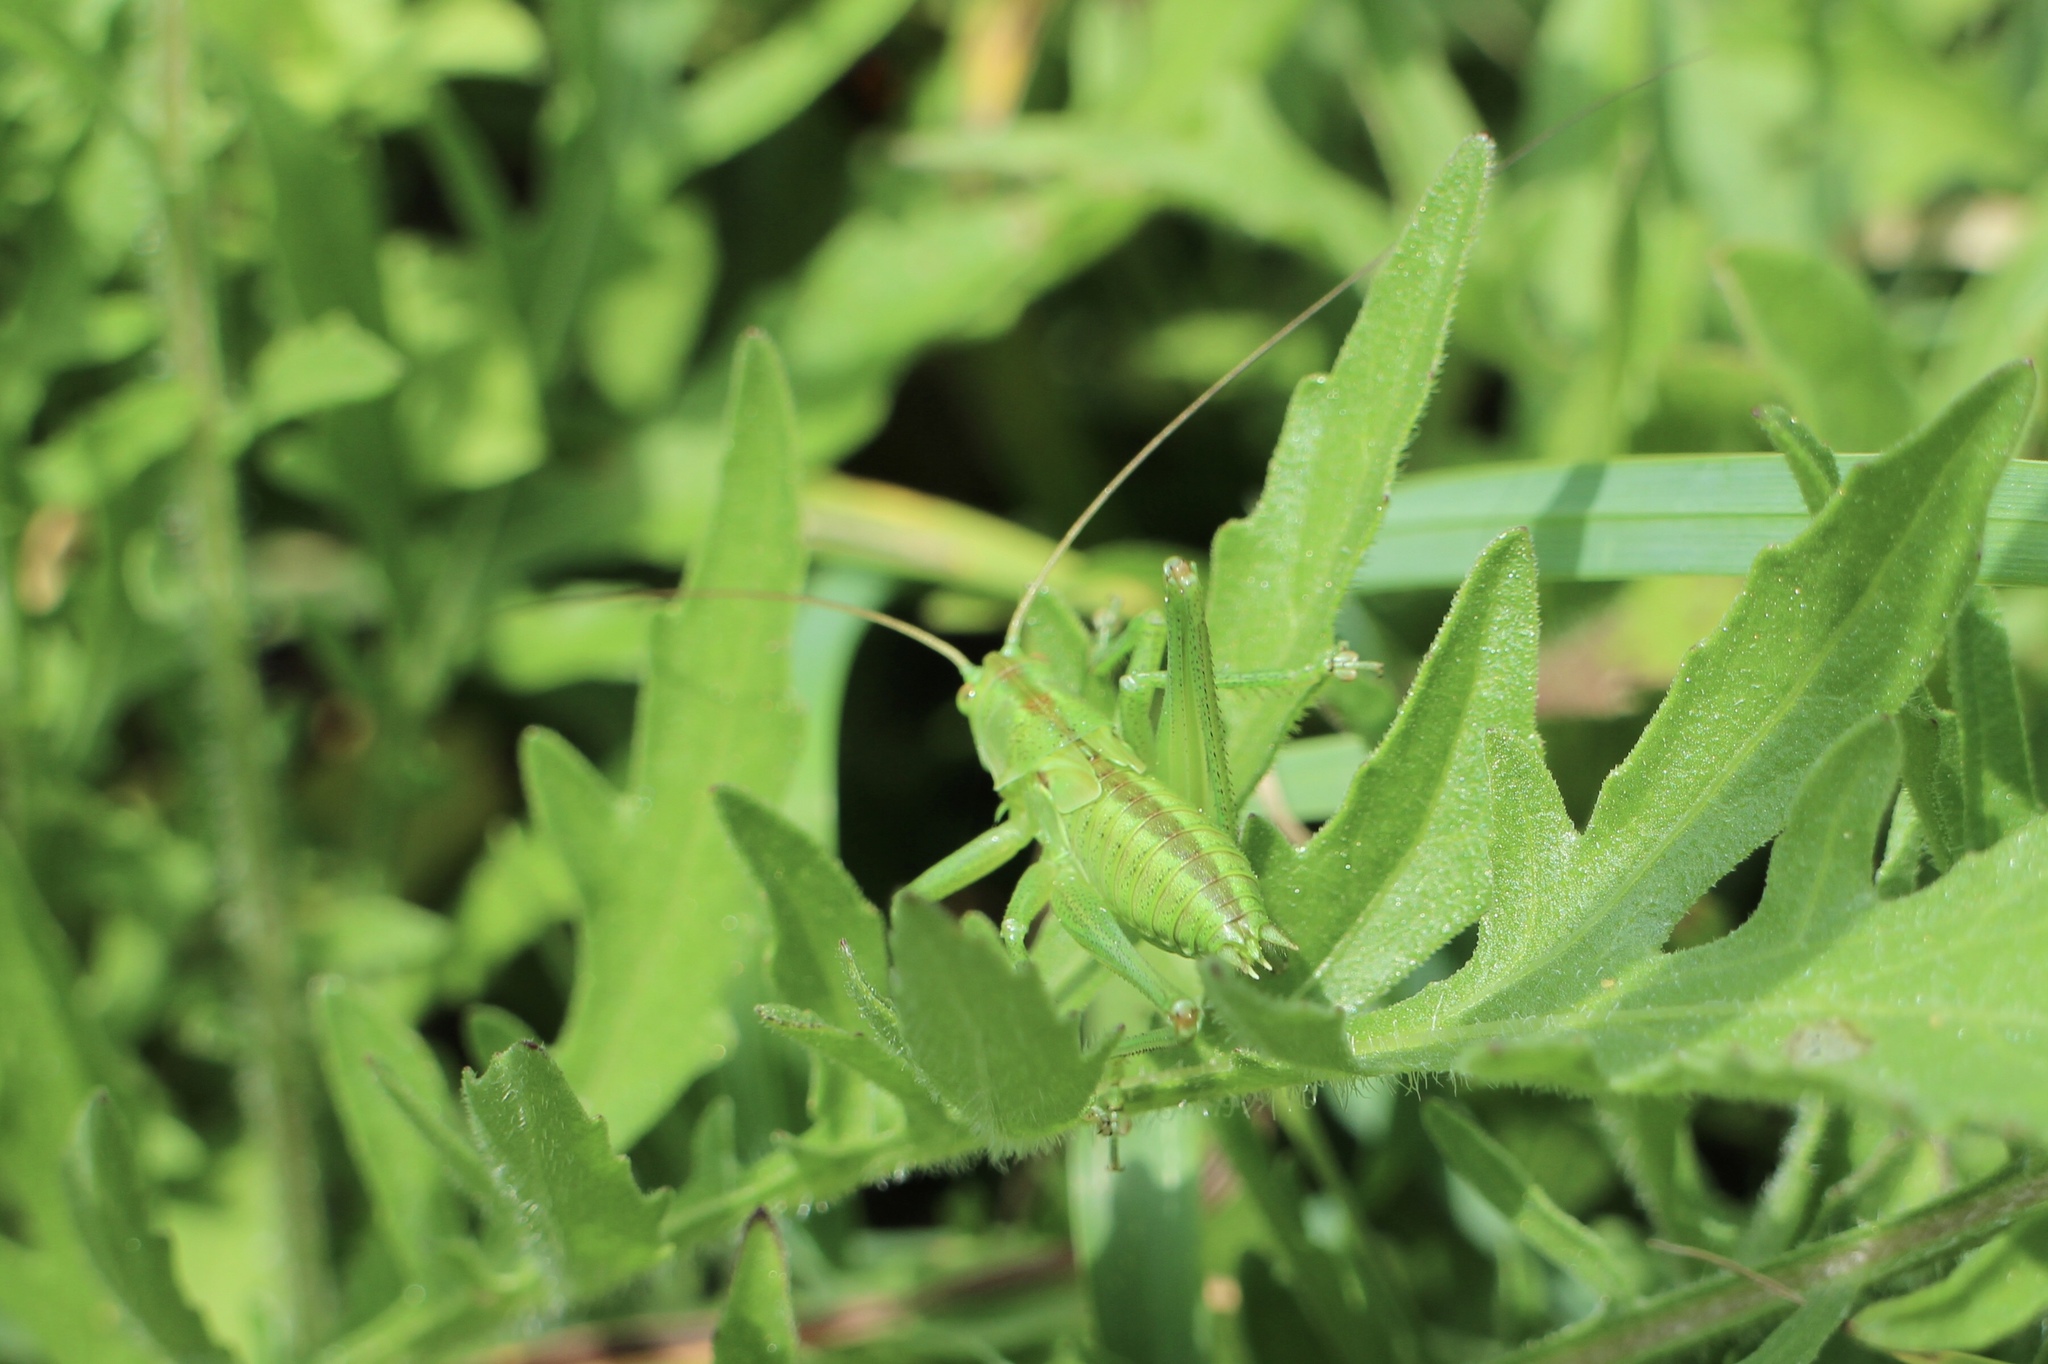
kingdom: Animalia
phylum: Arthropoda
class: Insecta
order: Orthoptera
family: Tettigoniidae
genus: Tettigonia
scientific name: Tettigonia viridissima
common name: Great green bush-cricket
